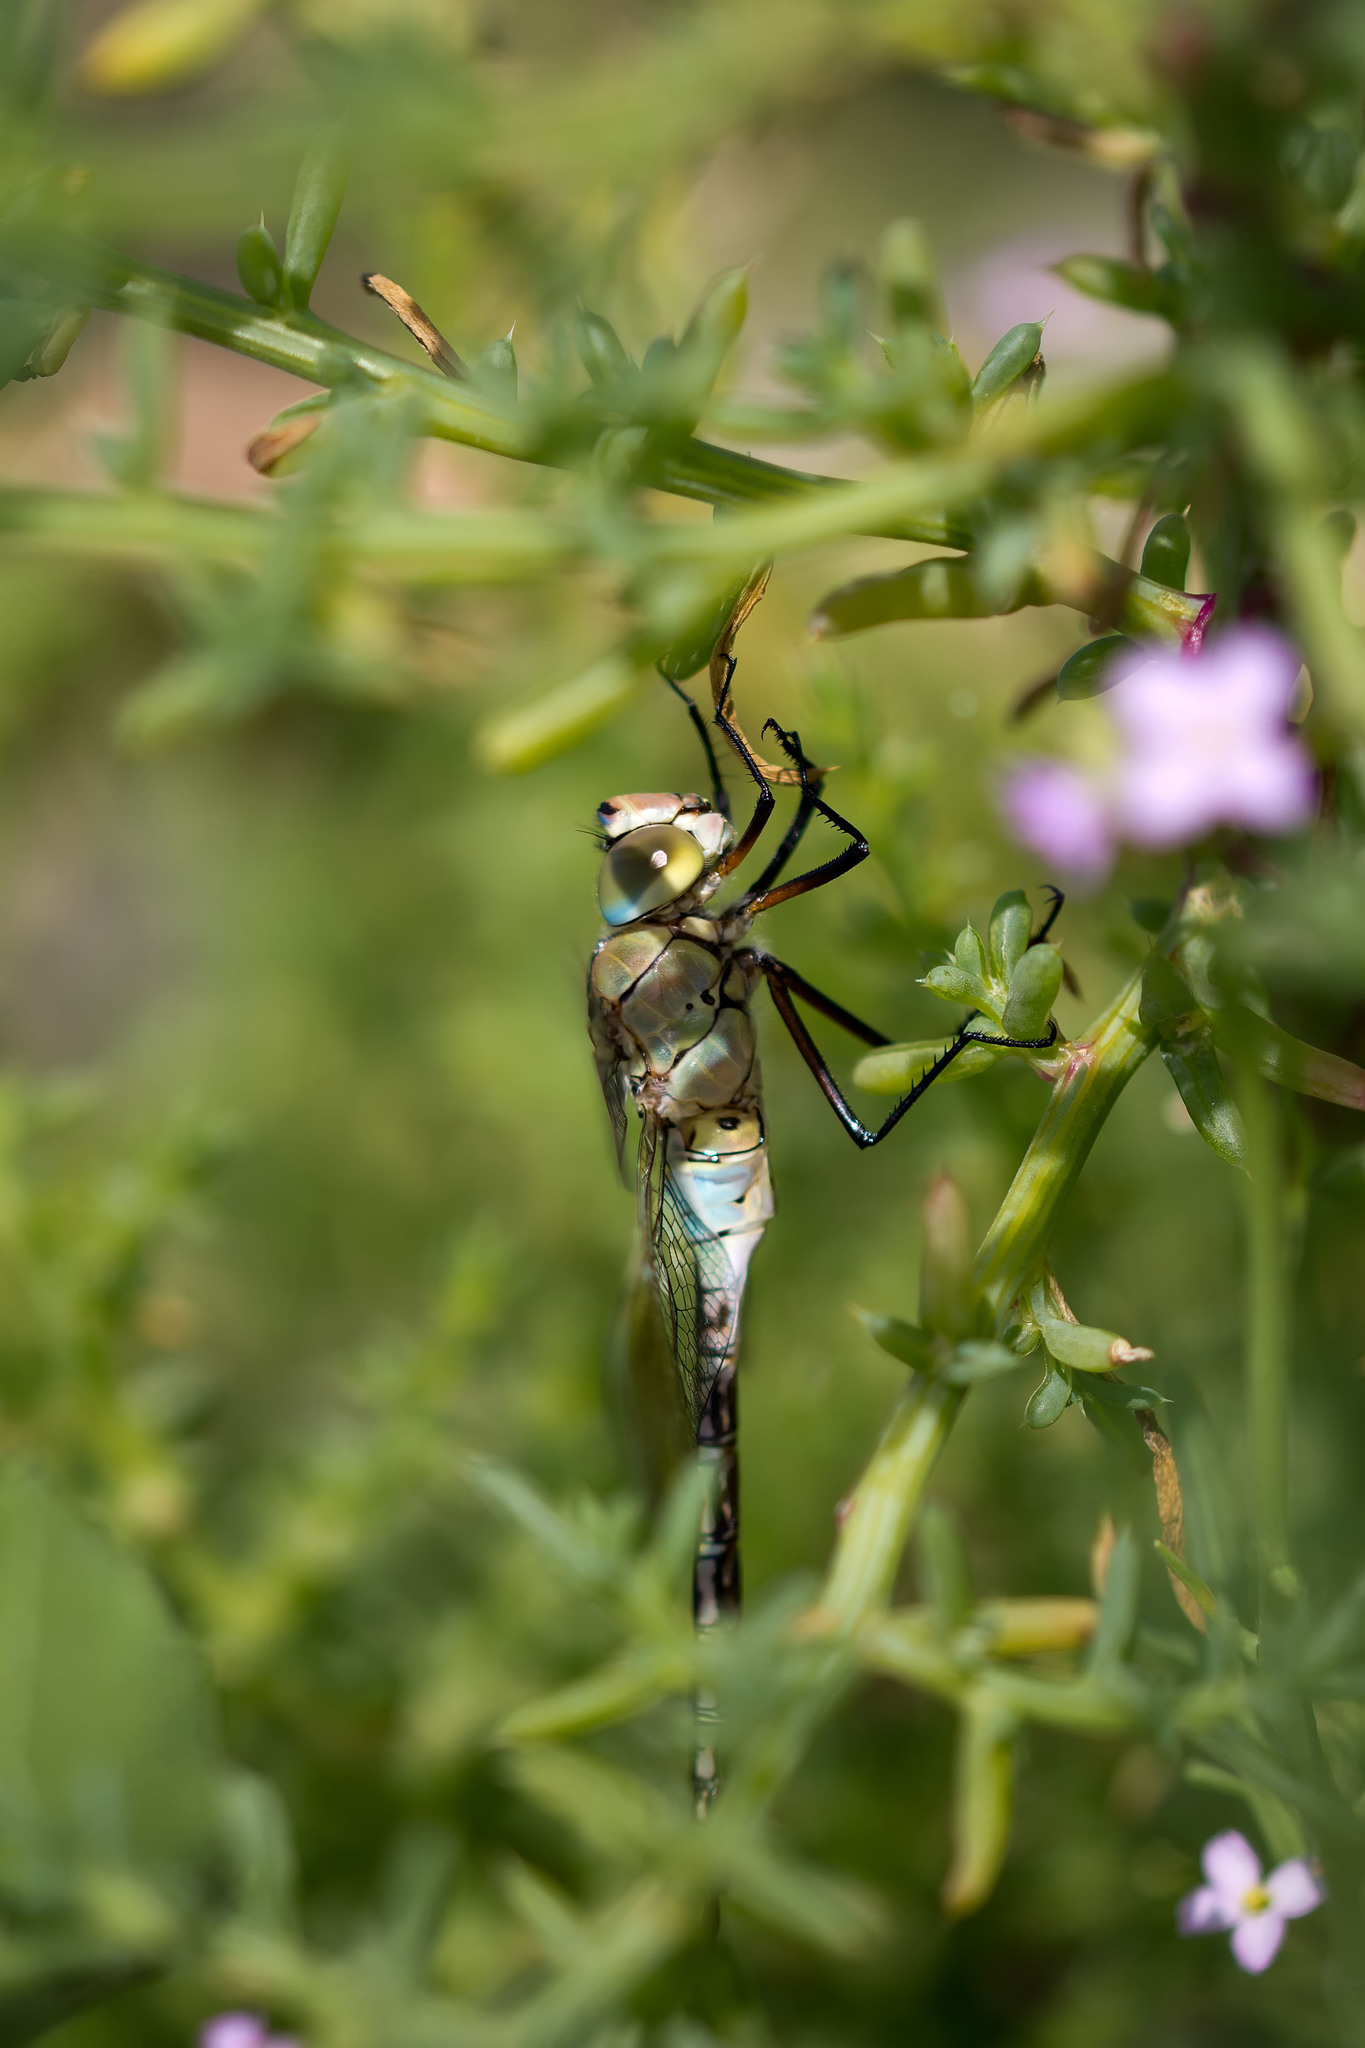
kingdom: Animalia
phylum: Arthropoda
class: Insecta
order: Odonata
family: Aeshnidae
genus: Anax
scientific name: Anax parthenope
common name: Lesser emperor
